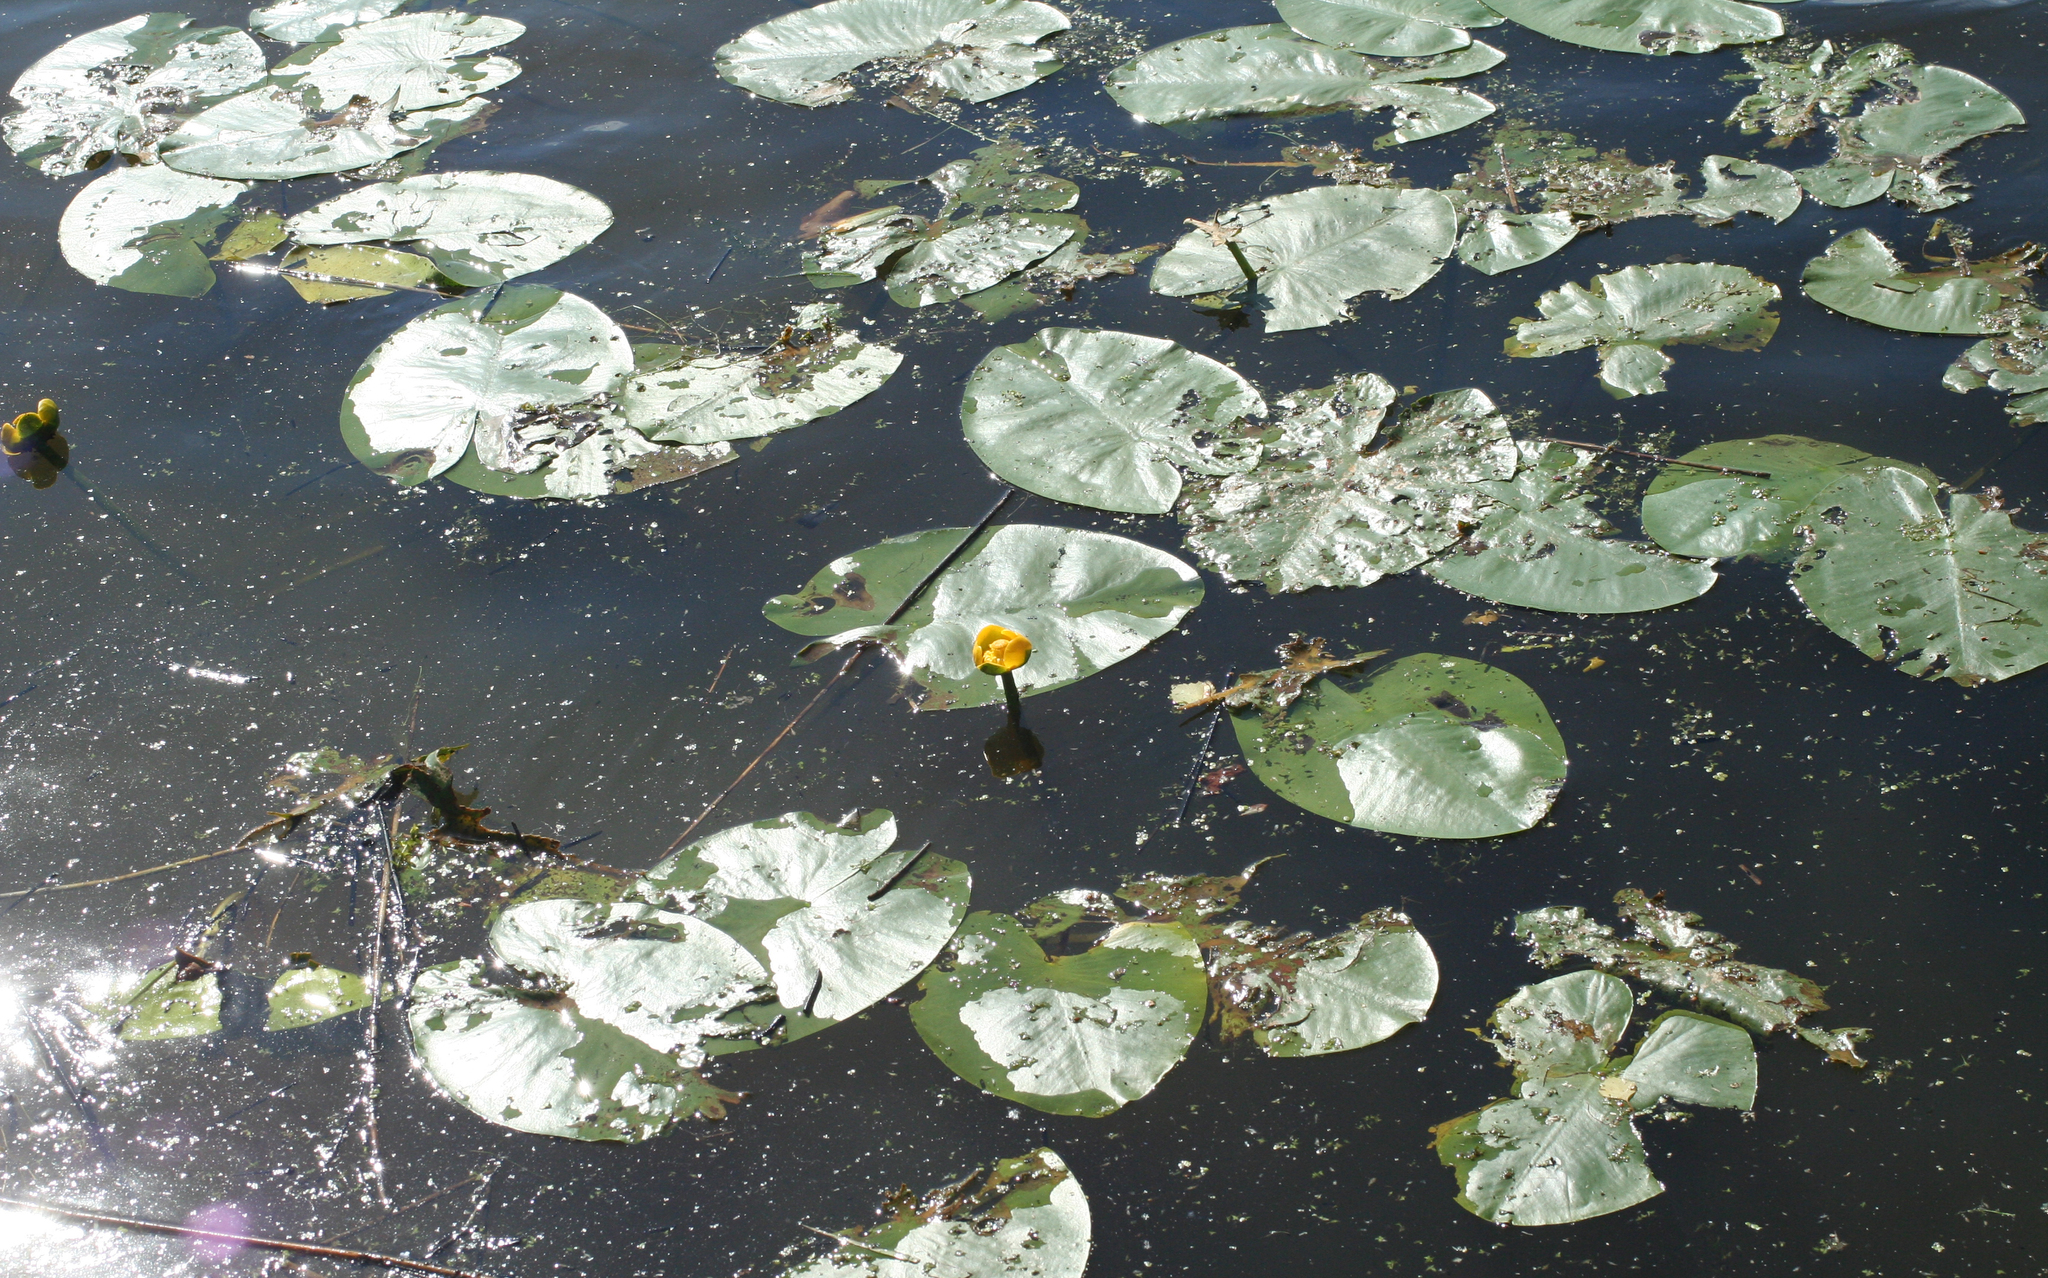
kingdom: Plantae
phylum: Tracheophyta
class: Magnoliopsida
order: Nymphaeales
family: Nymphaeaceae
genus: Nuphar
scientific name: Nuphar lutea
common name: Yellow water-lily
